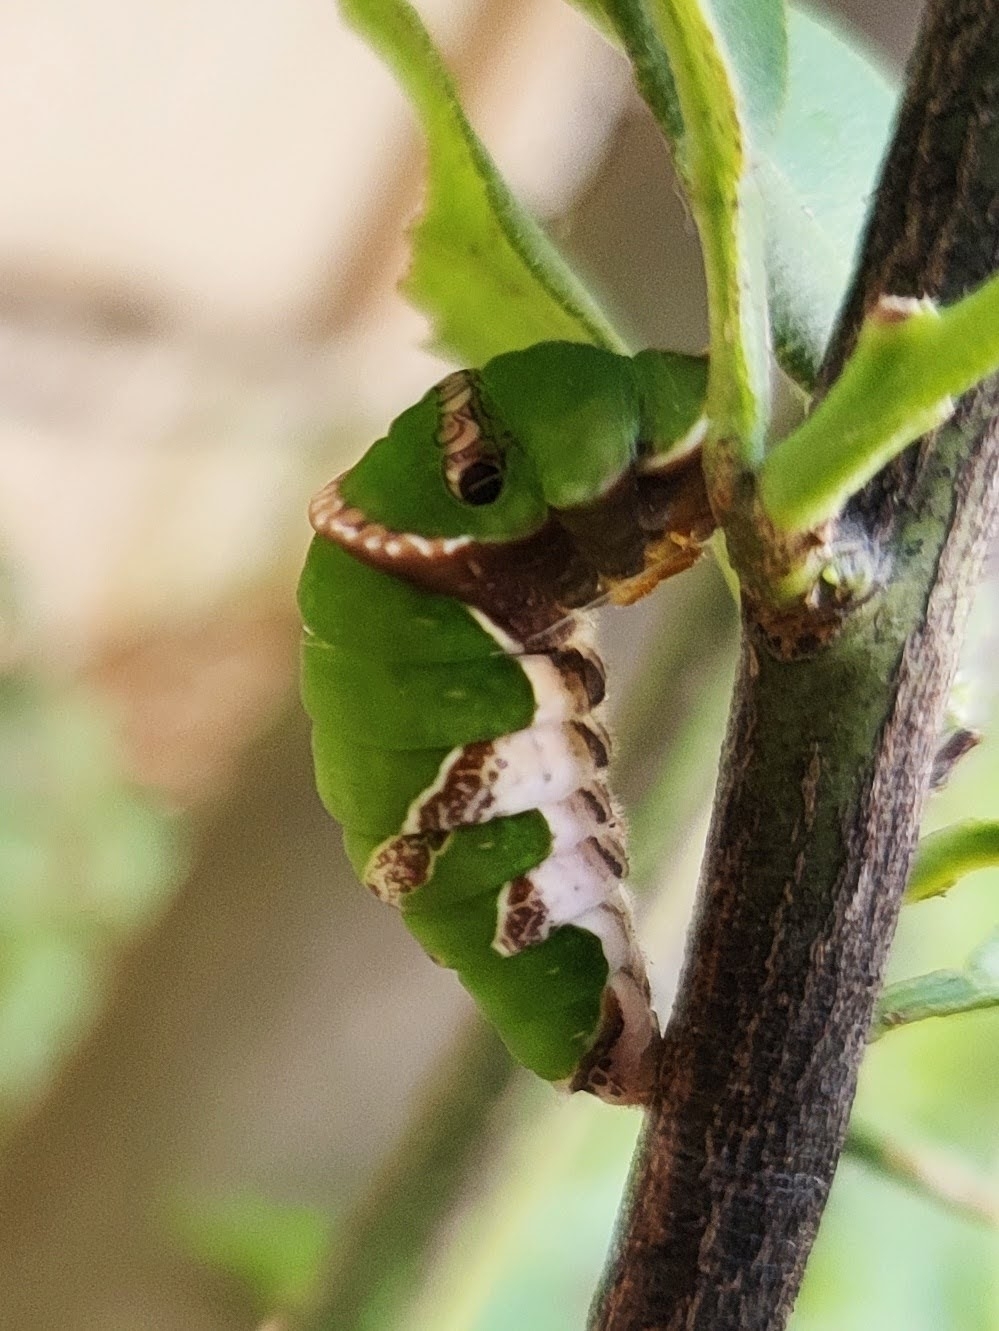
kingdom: Animalia
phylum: Arthropoda
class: Insecta
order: Lepidoptera
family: Papilionidae
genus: Papilio
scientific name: Papilio polytes
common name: Common mormon
